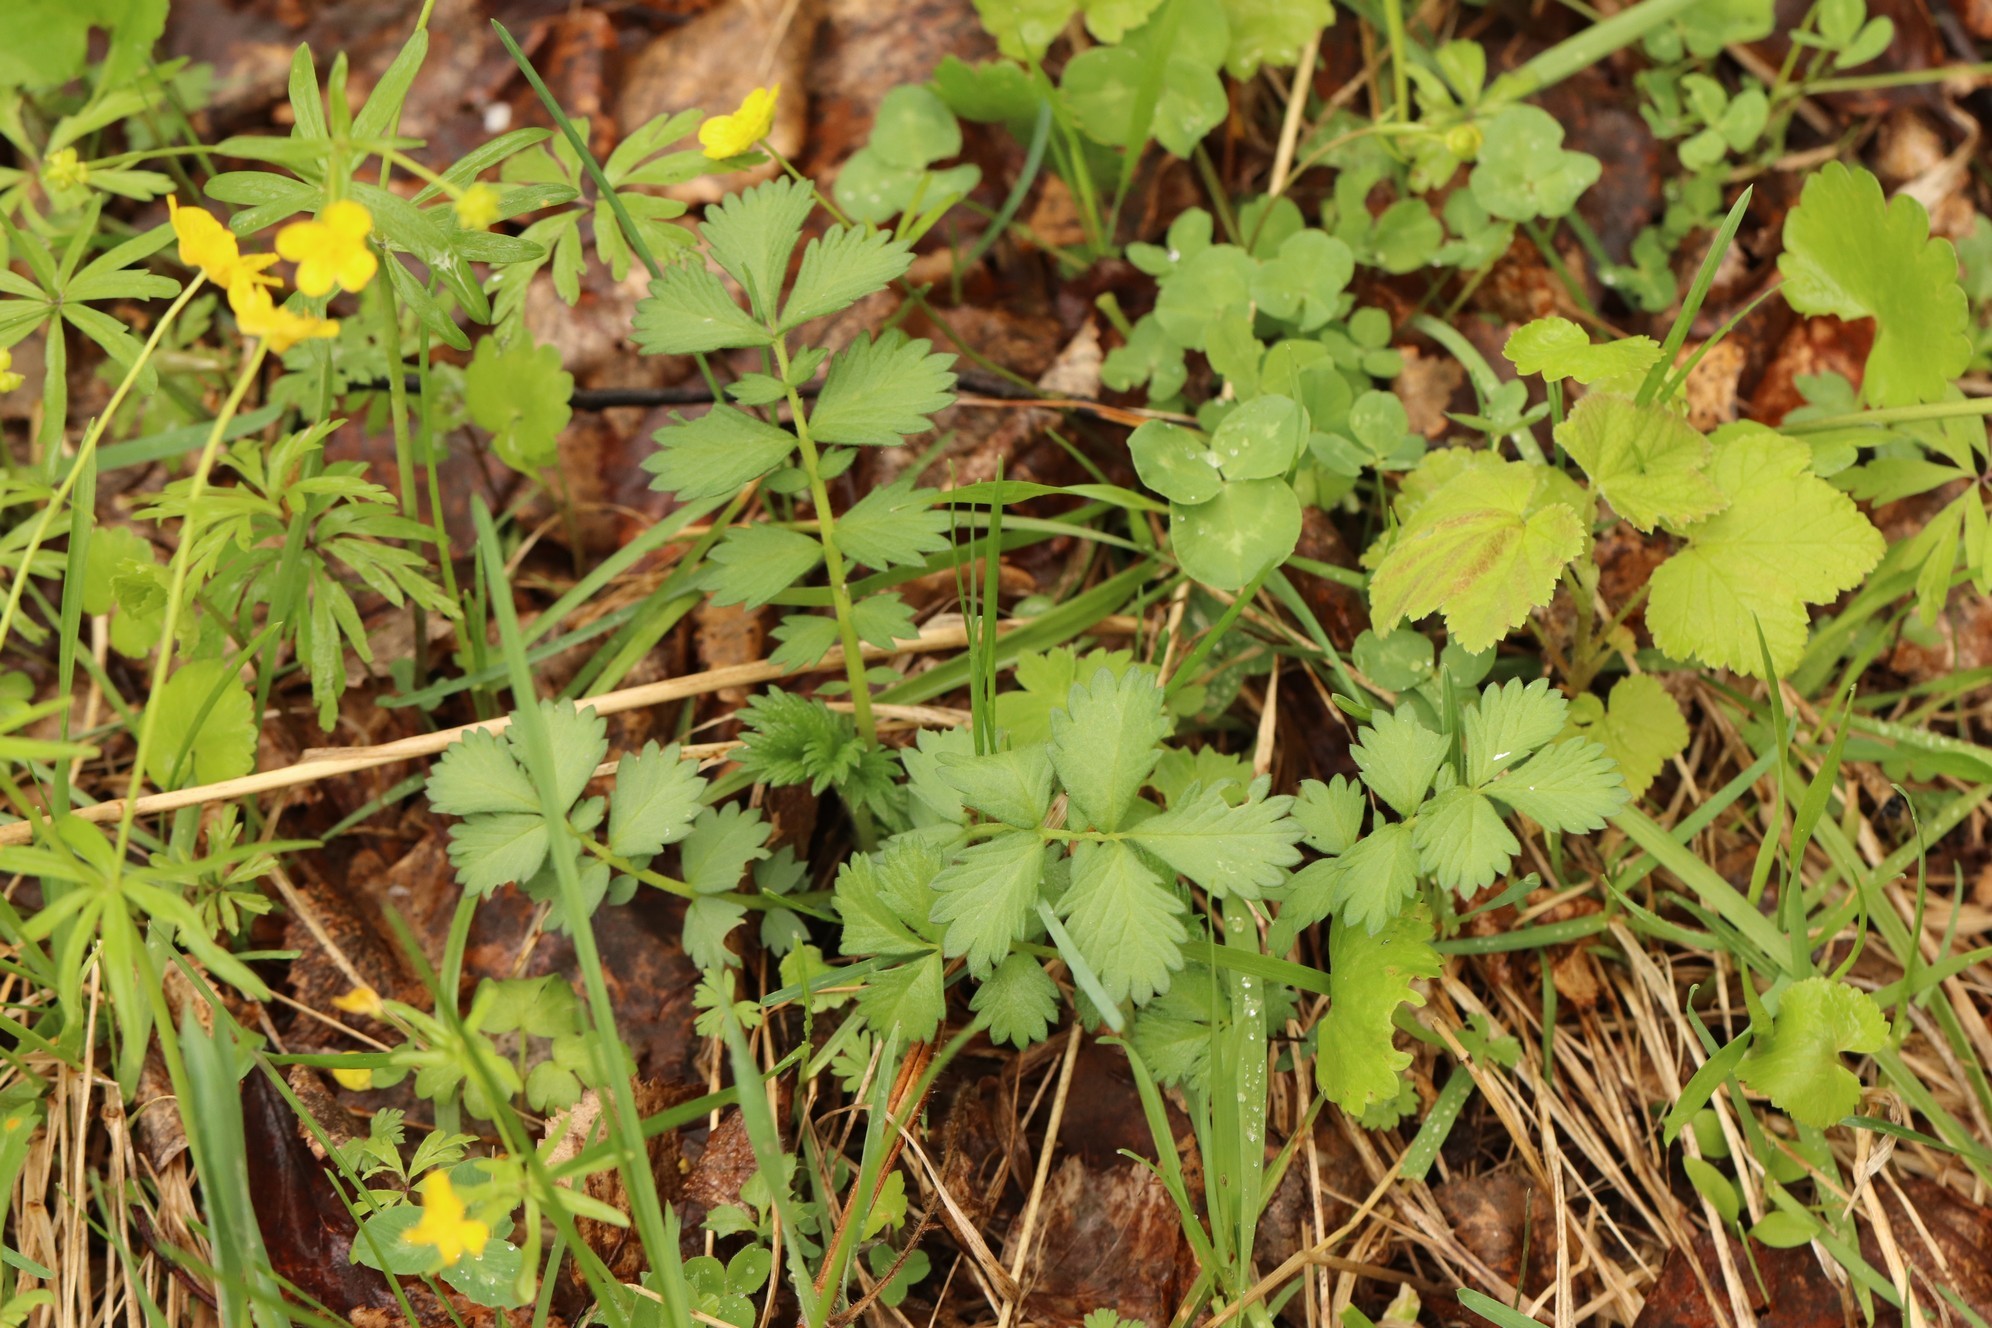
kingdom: Plantae
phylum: Tracheophyta
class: Magnoliopsida
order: Rosales
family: Rosaceae
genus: Agrimonia
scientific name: Agrimonia pilosa
